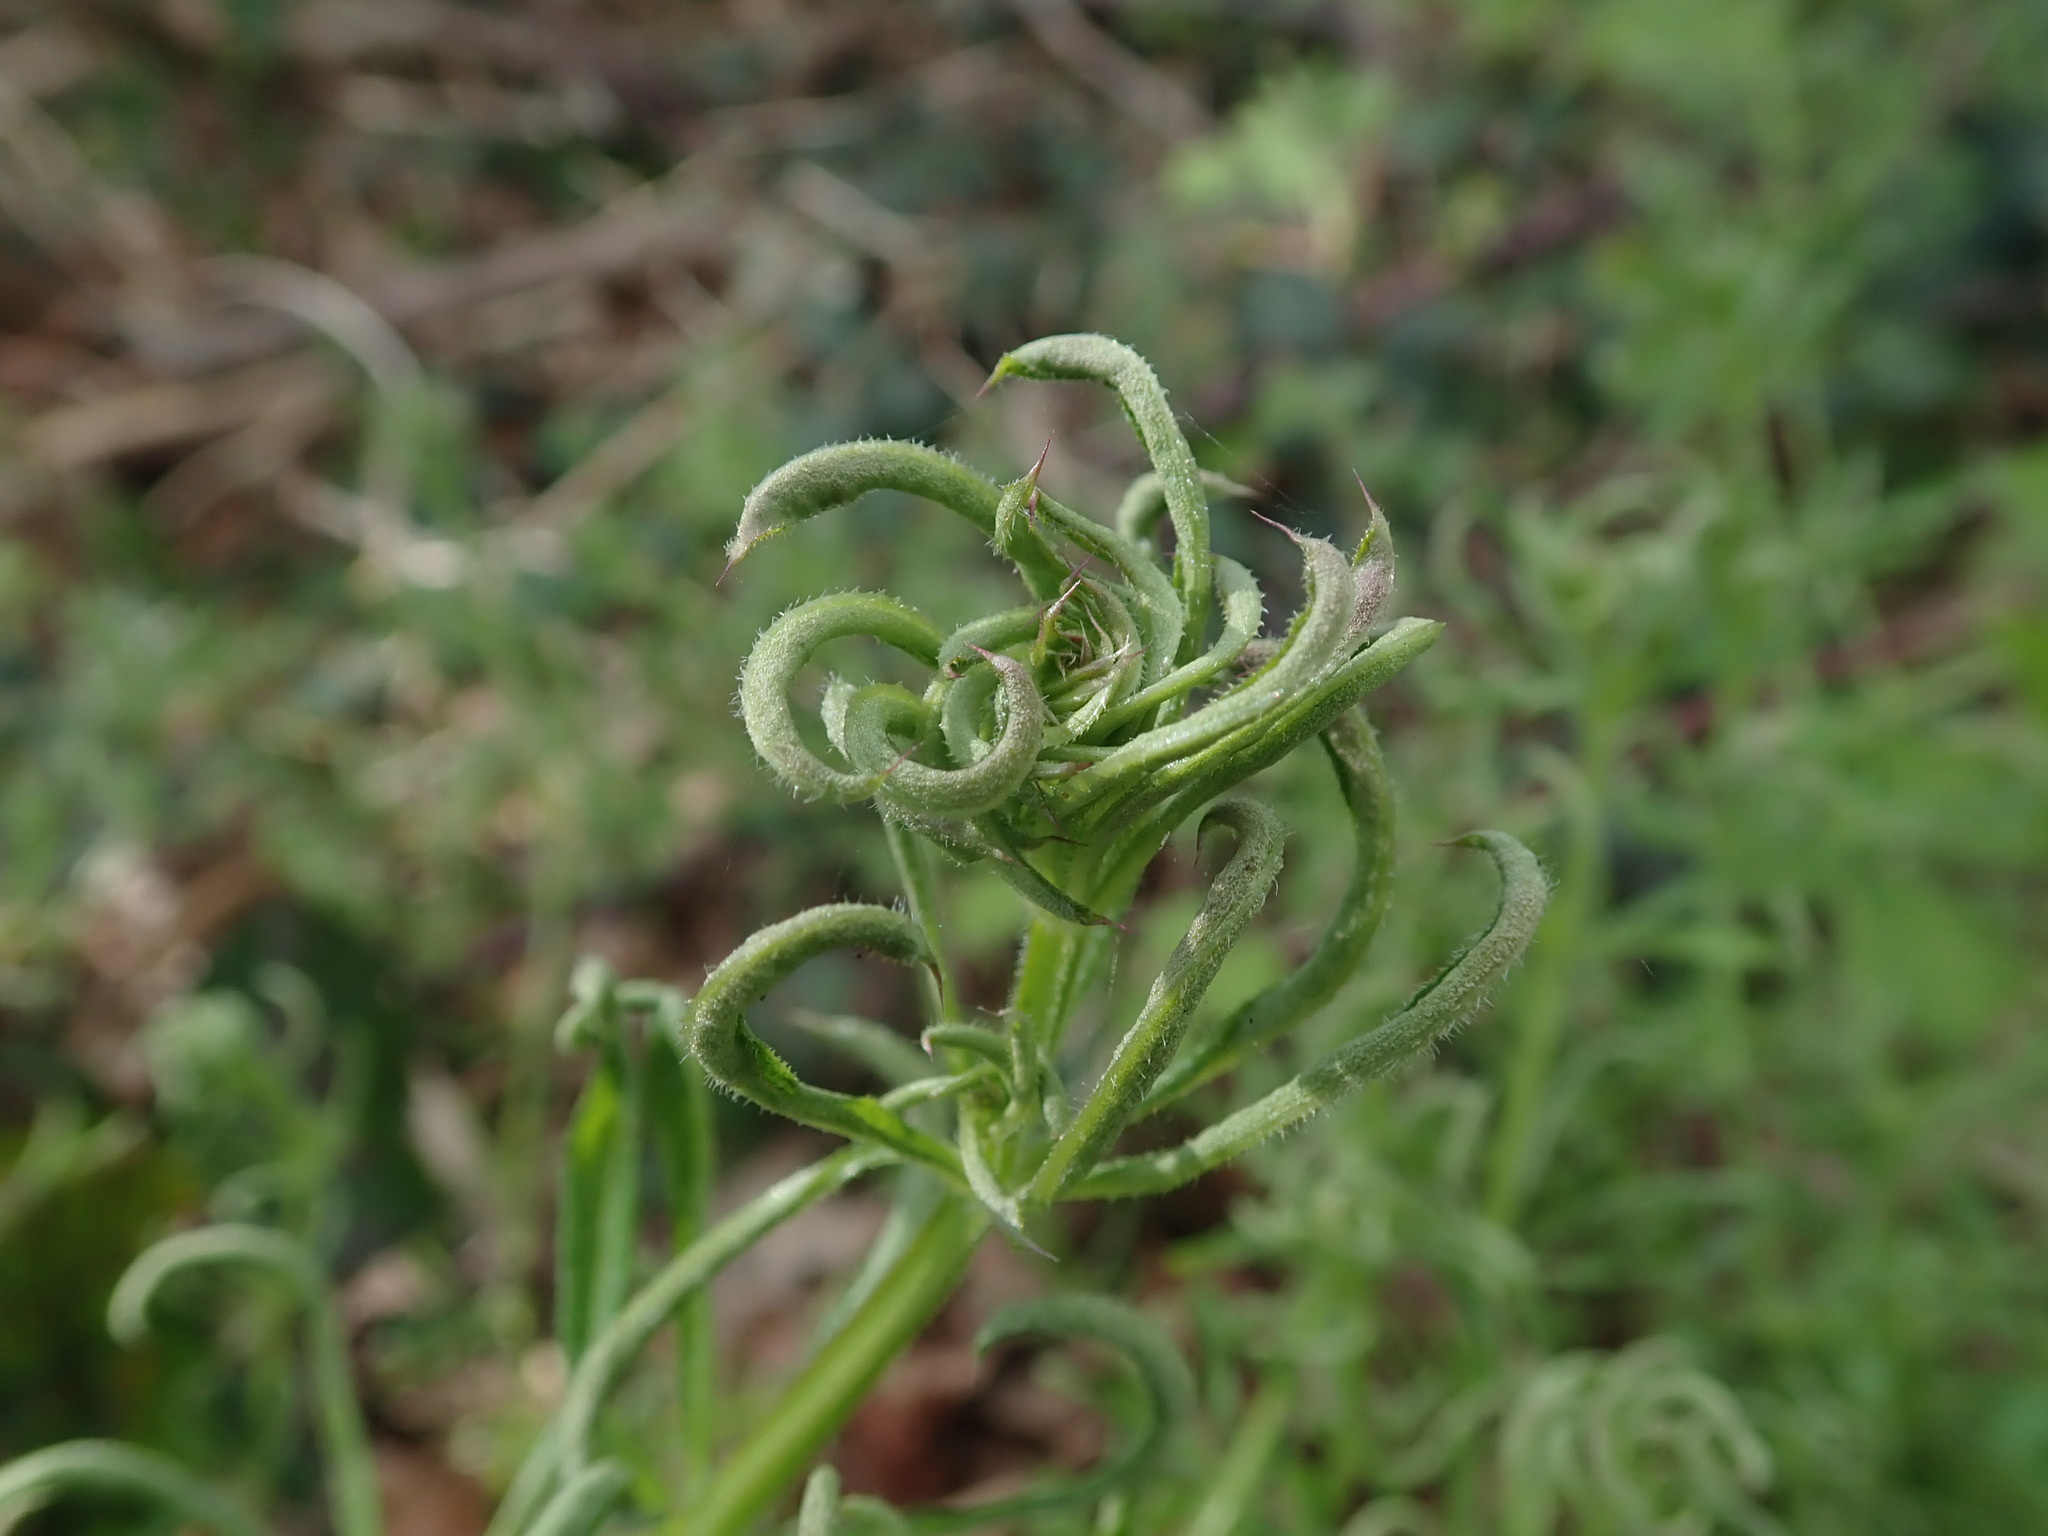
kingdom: Animalia
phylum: Arthropoda
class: Arachnida
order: Trombidiformes
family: Eriophyidae
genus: Cecidophyes
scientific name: Cecidophyes rouhollahi
